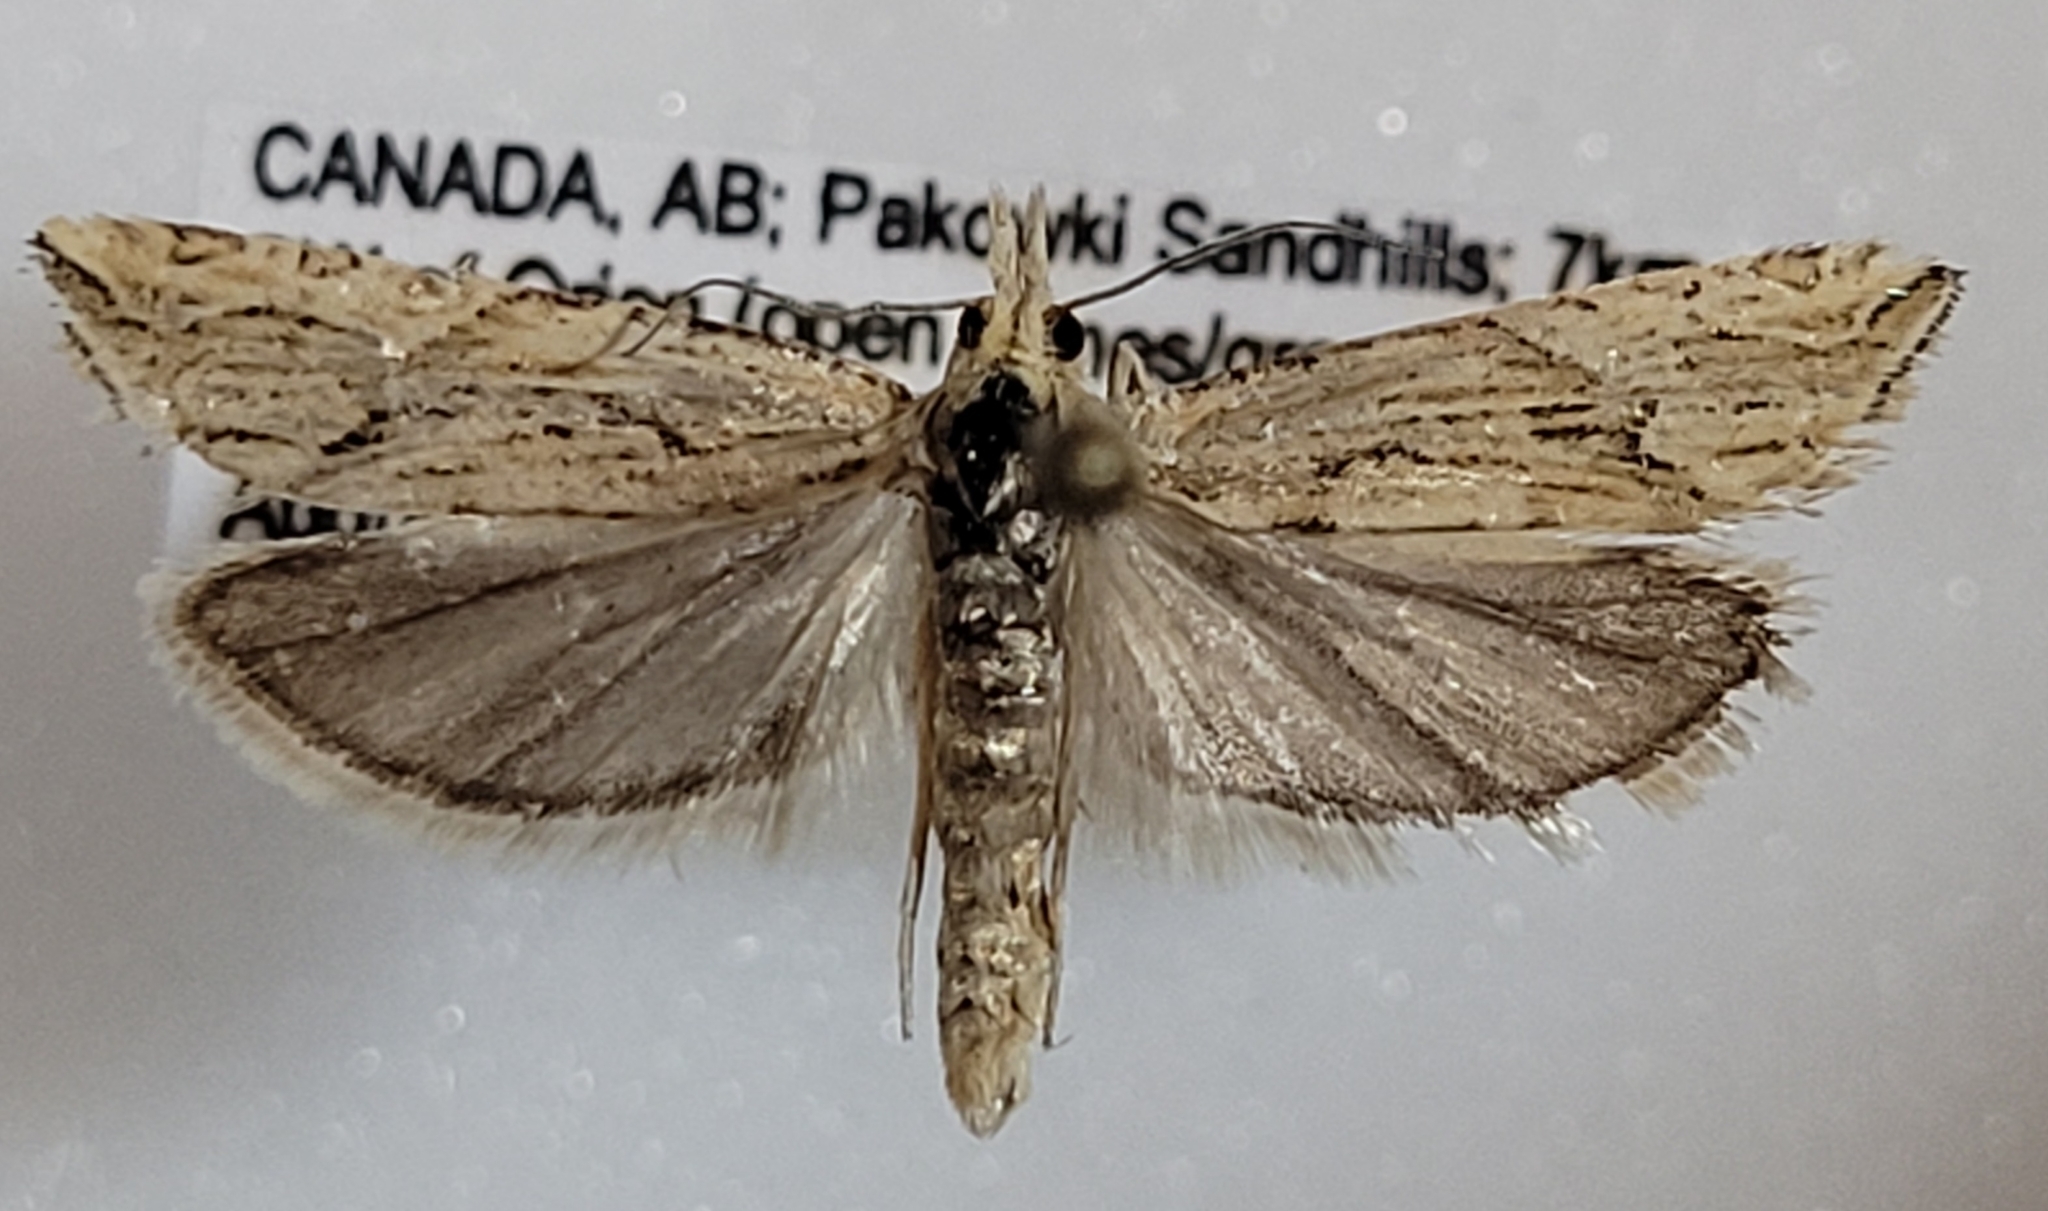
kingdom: Animalia
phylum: Arthropoda
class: Insecta
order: Lepidoptera
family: Tortricidae
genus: Eucosma
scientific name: Eucosma montanana
